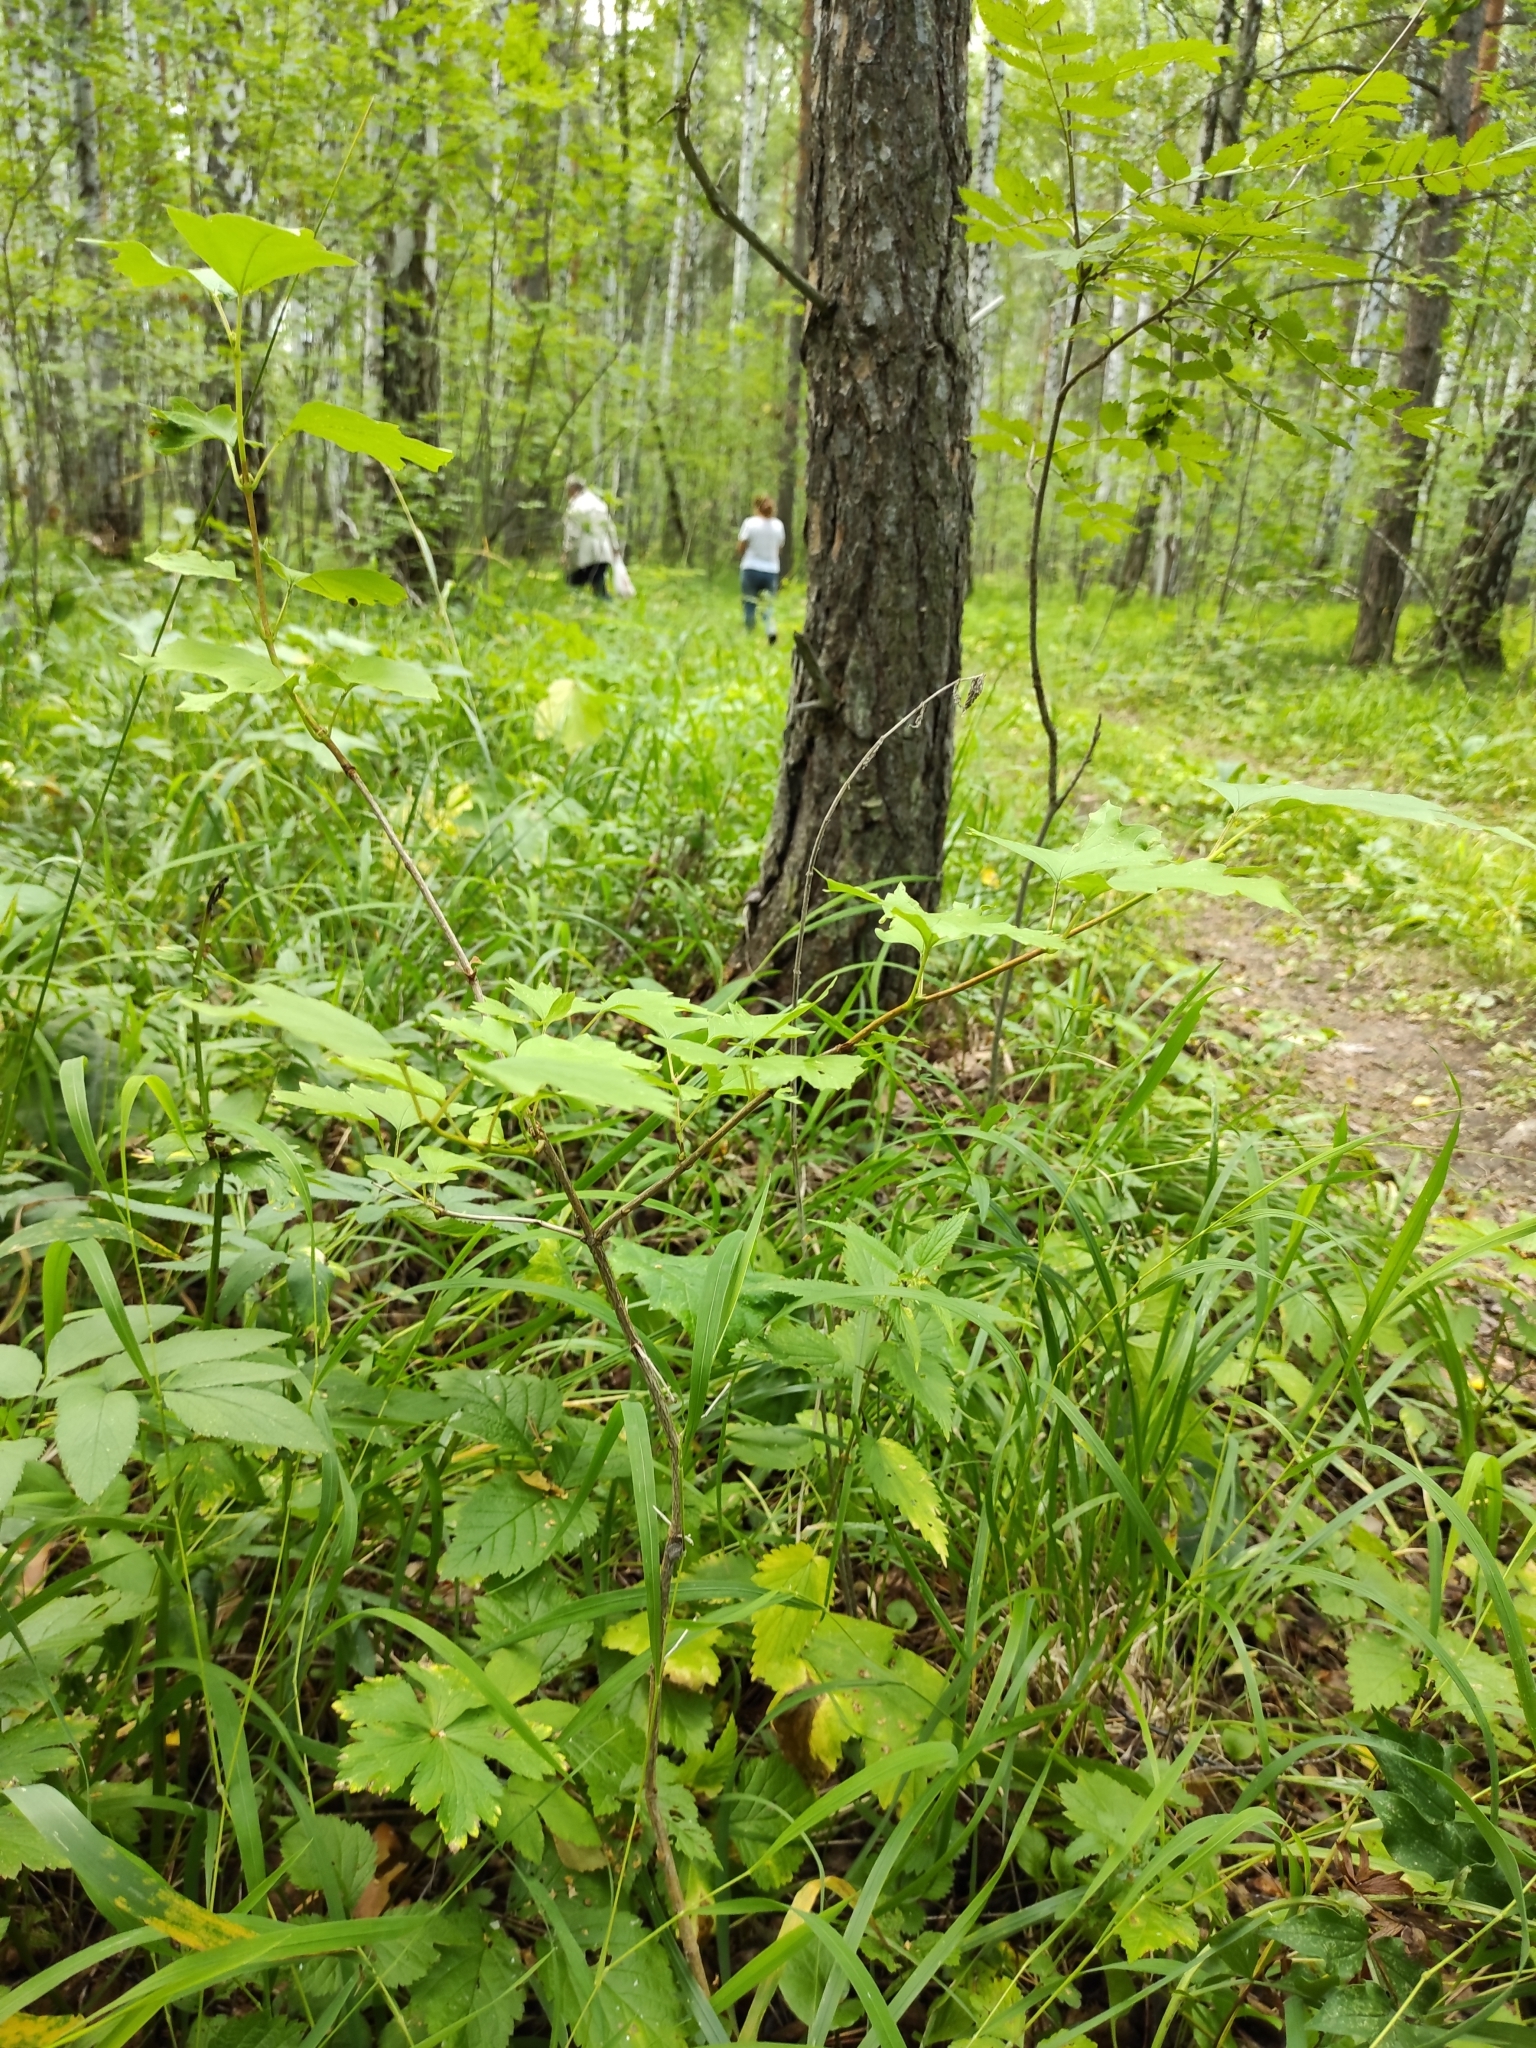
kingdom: Plantae
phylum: Tracheophyta
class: Magnoliopsida
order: Dipsacales
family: Viburnaceae
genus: Viburnum
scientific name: Viburnum opulus
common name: Guelder-rose
